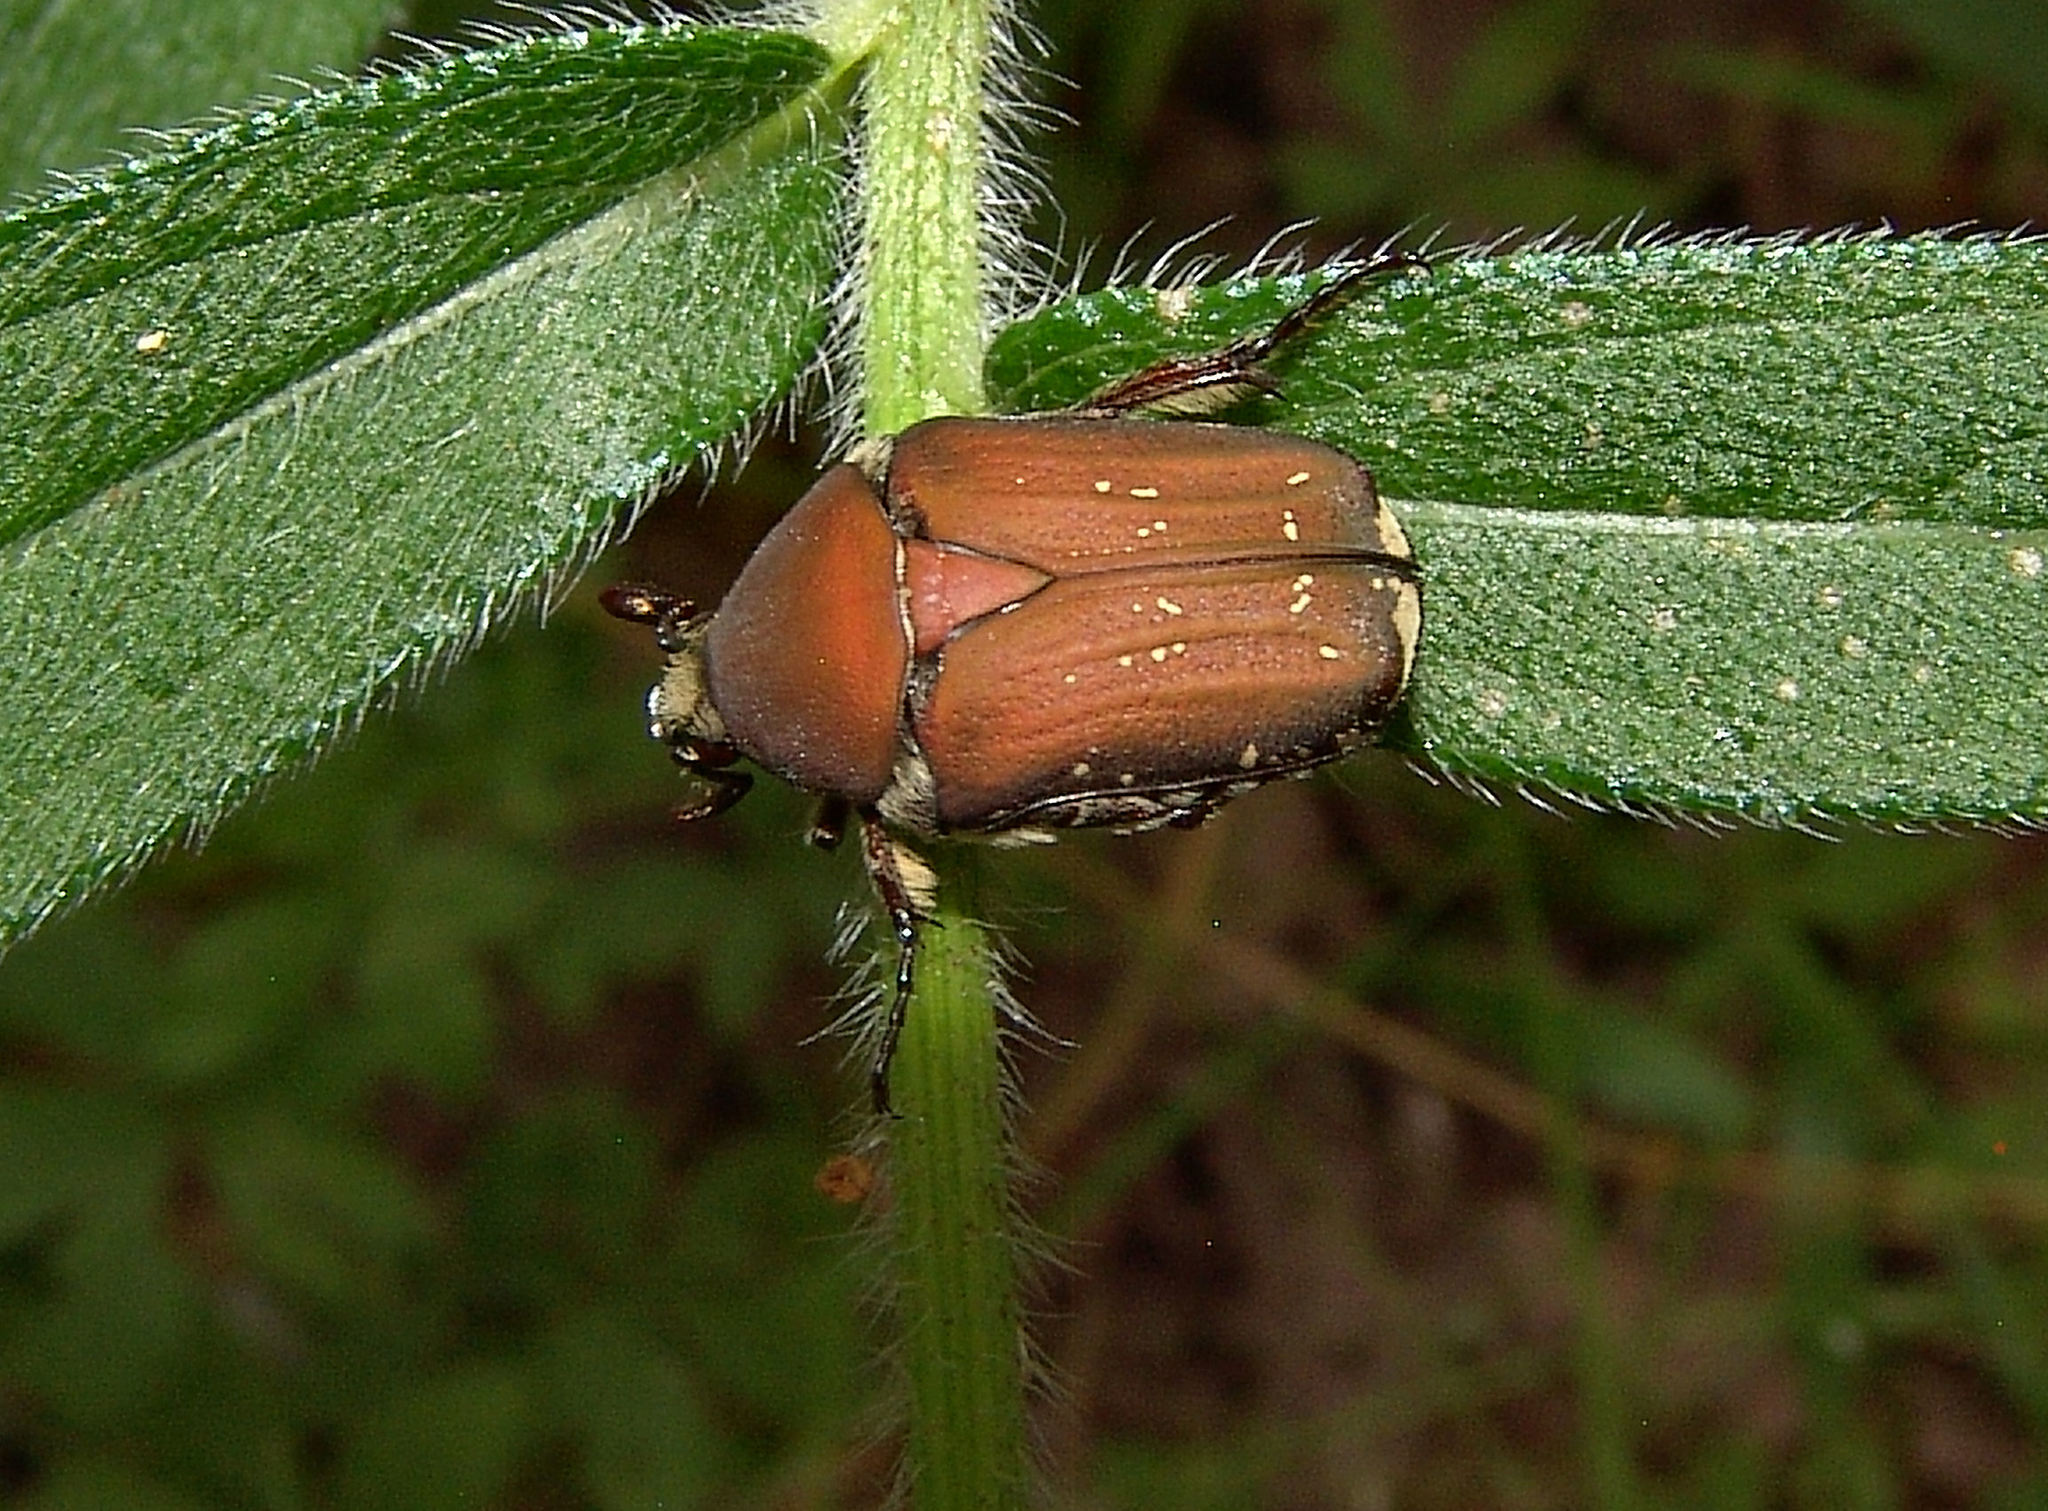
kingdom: Animalia
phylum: Arthropoda
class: Insecta
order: Coleoptera
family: Scarabaeidae
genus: Euphoria
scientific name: Euphoria herbacea
